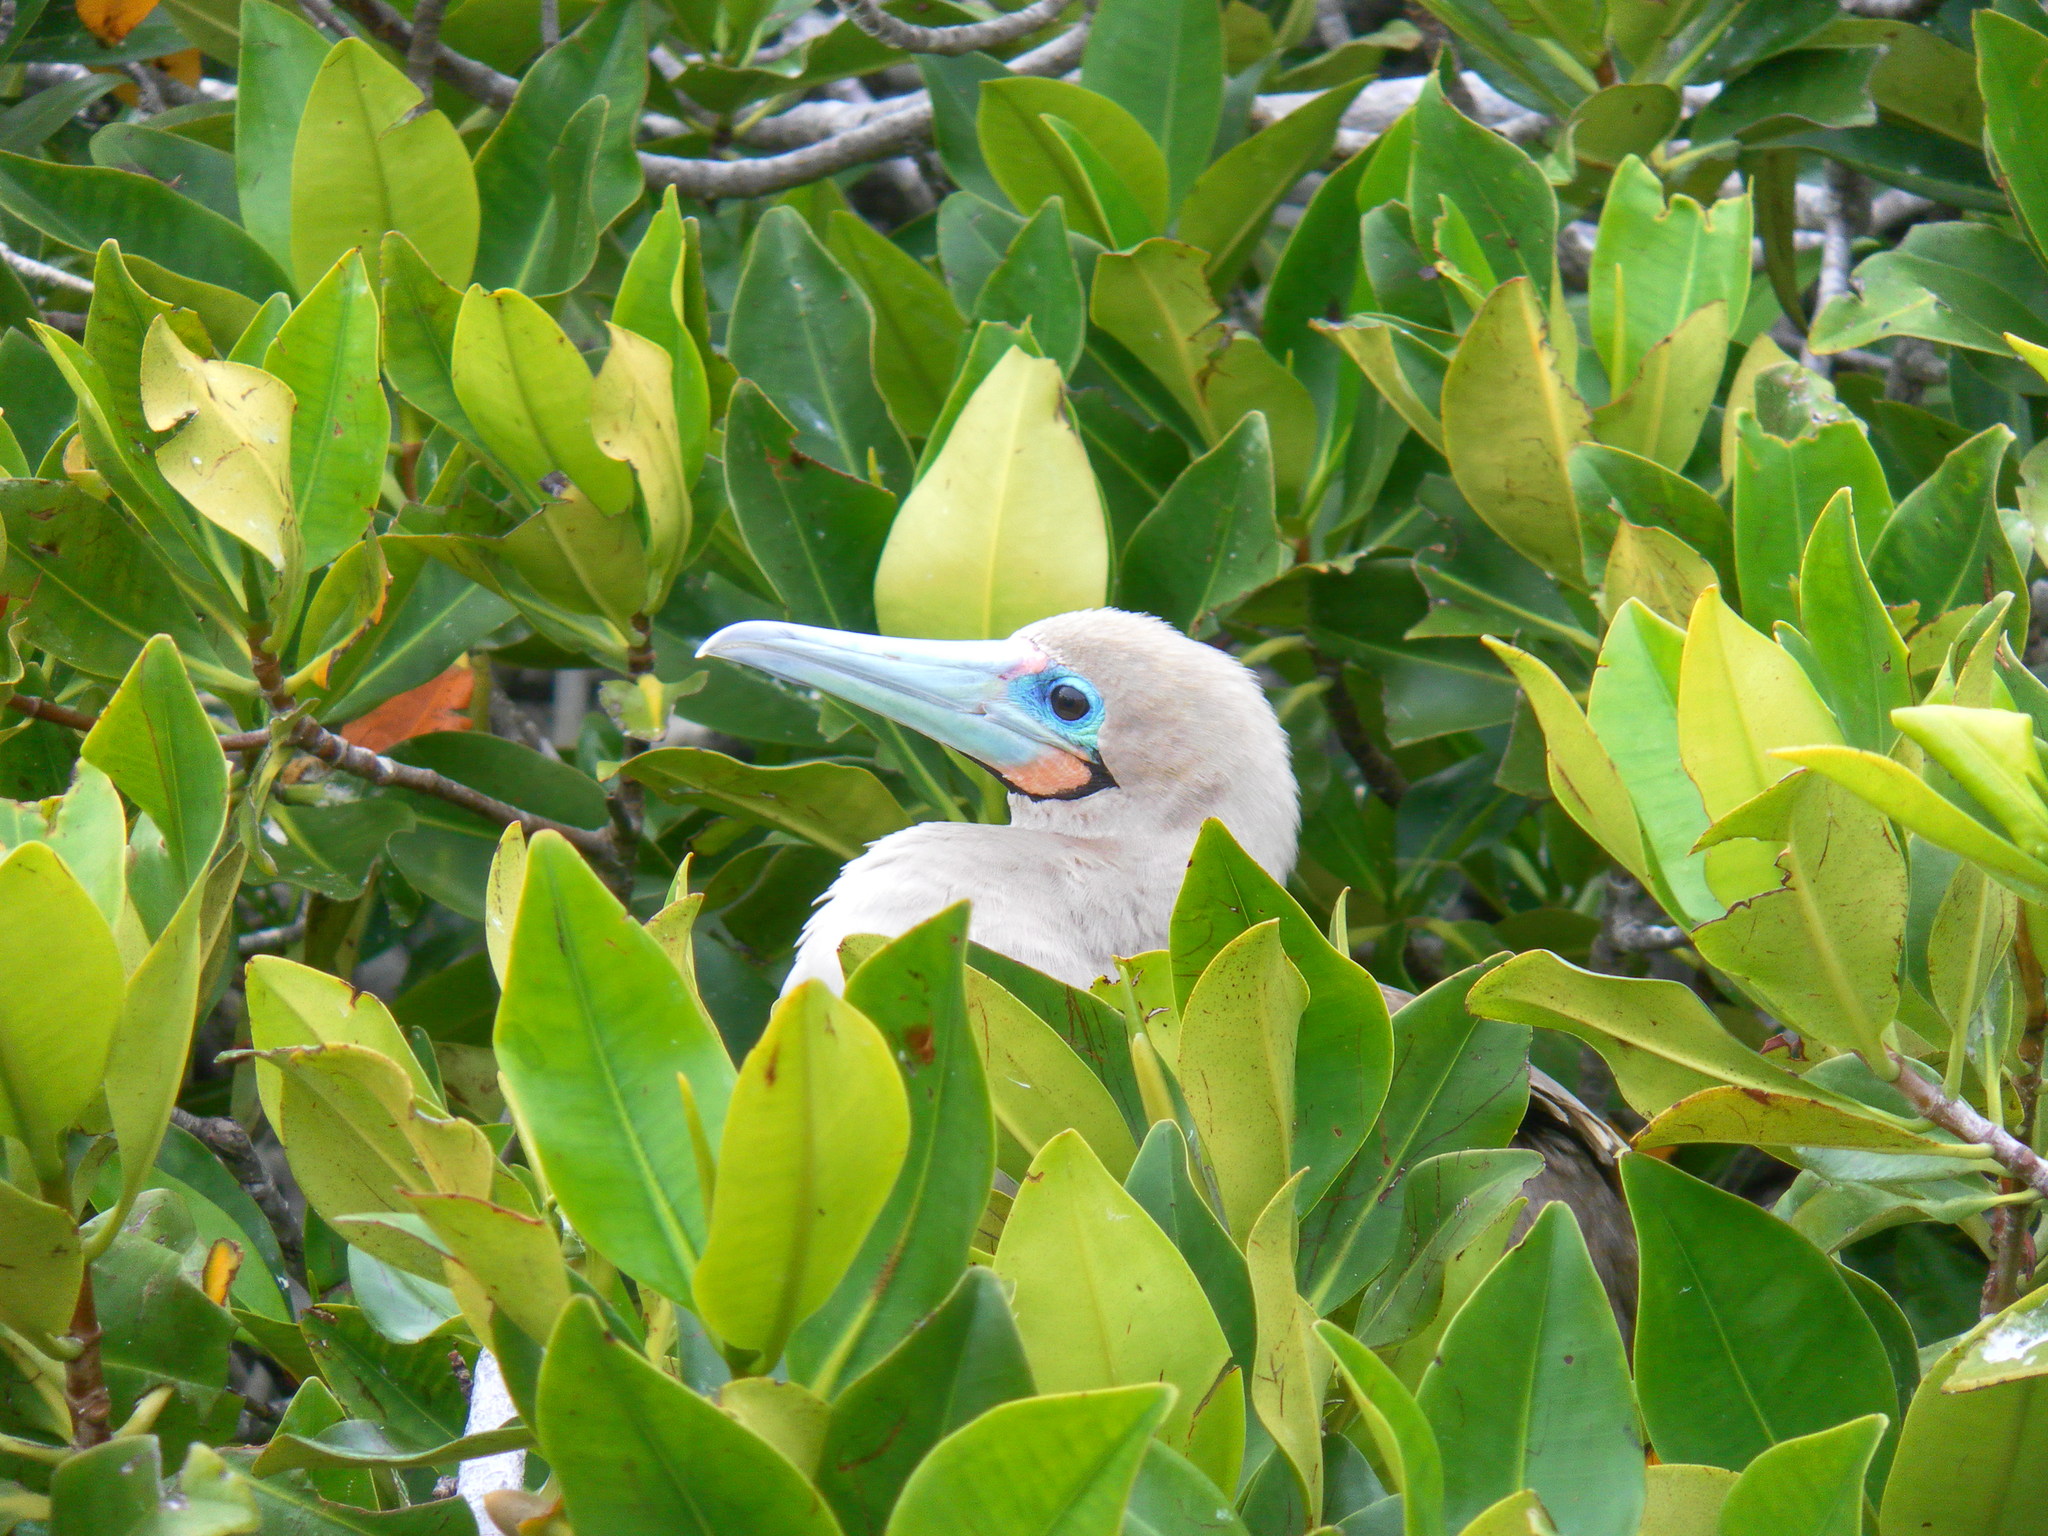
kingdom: Plantae
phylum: Tracheophyta
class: Magnoliopsida
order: Malpighiales
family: Rhizophoraceae
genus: Rhizophora
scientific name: Rhizophora mangle
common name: Red mangrove
